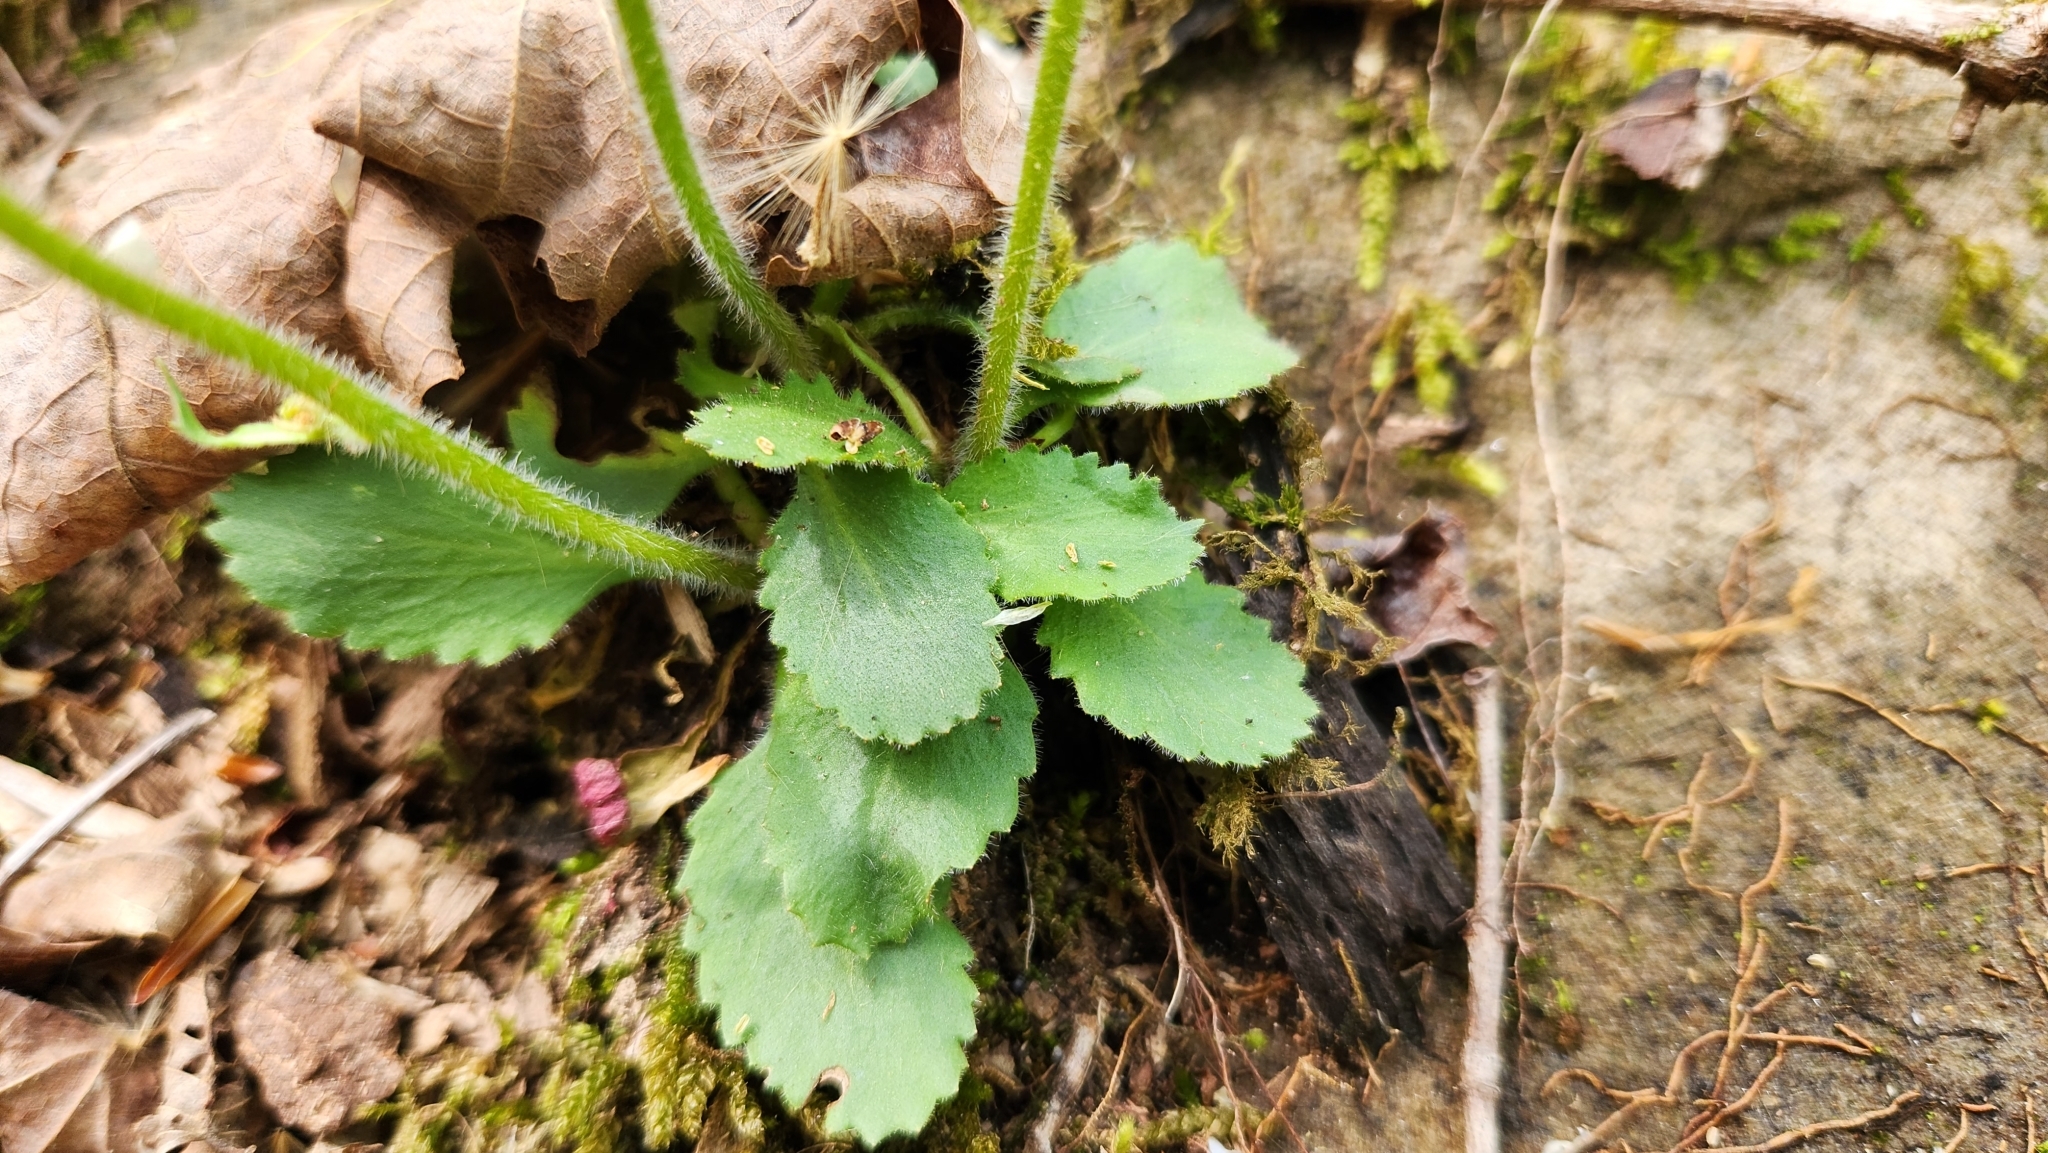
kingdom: Plantae
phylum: Tracheophyta
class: Magnoliopsida
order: Saxifragales
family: Saxifragaceae
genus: Micranthes
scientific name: Micranthes virginiensis
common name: Early saxifrage
